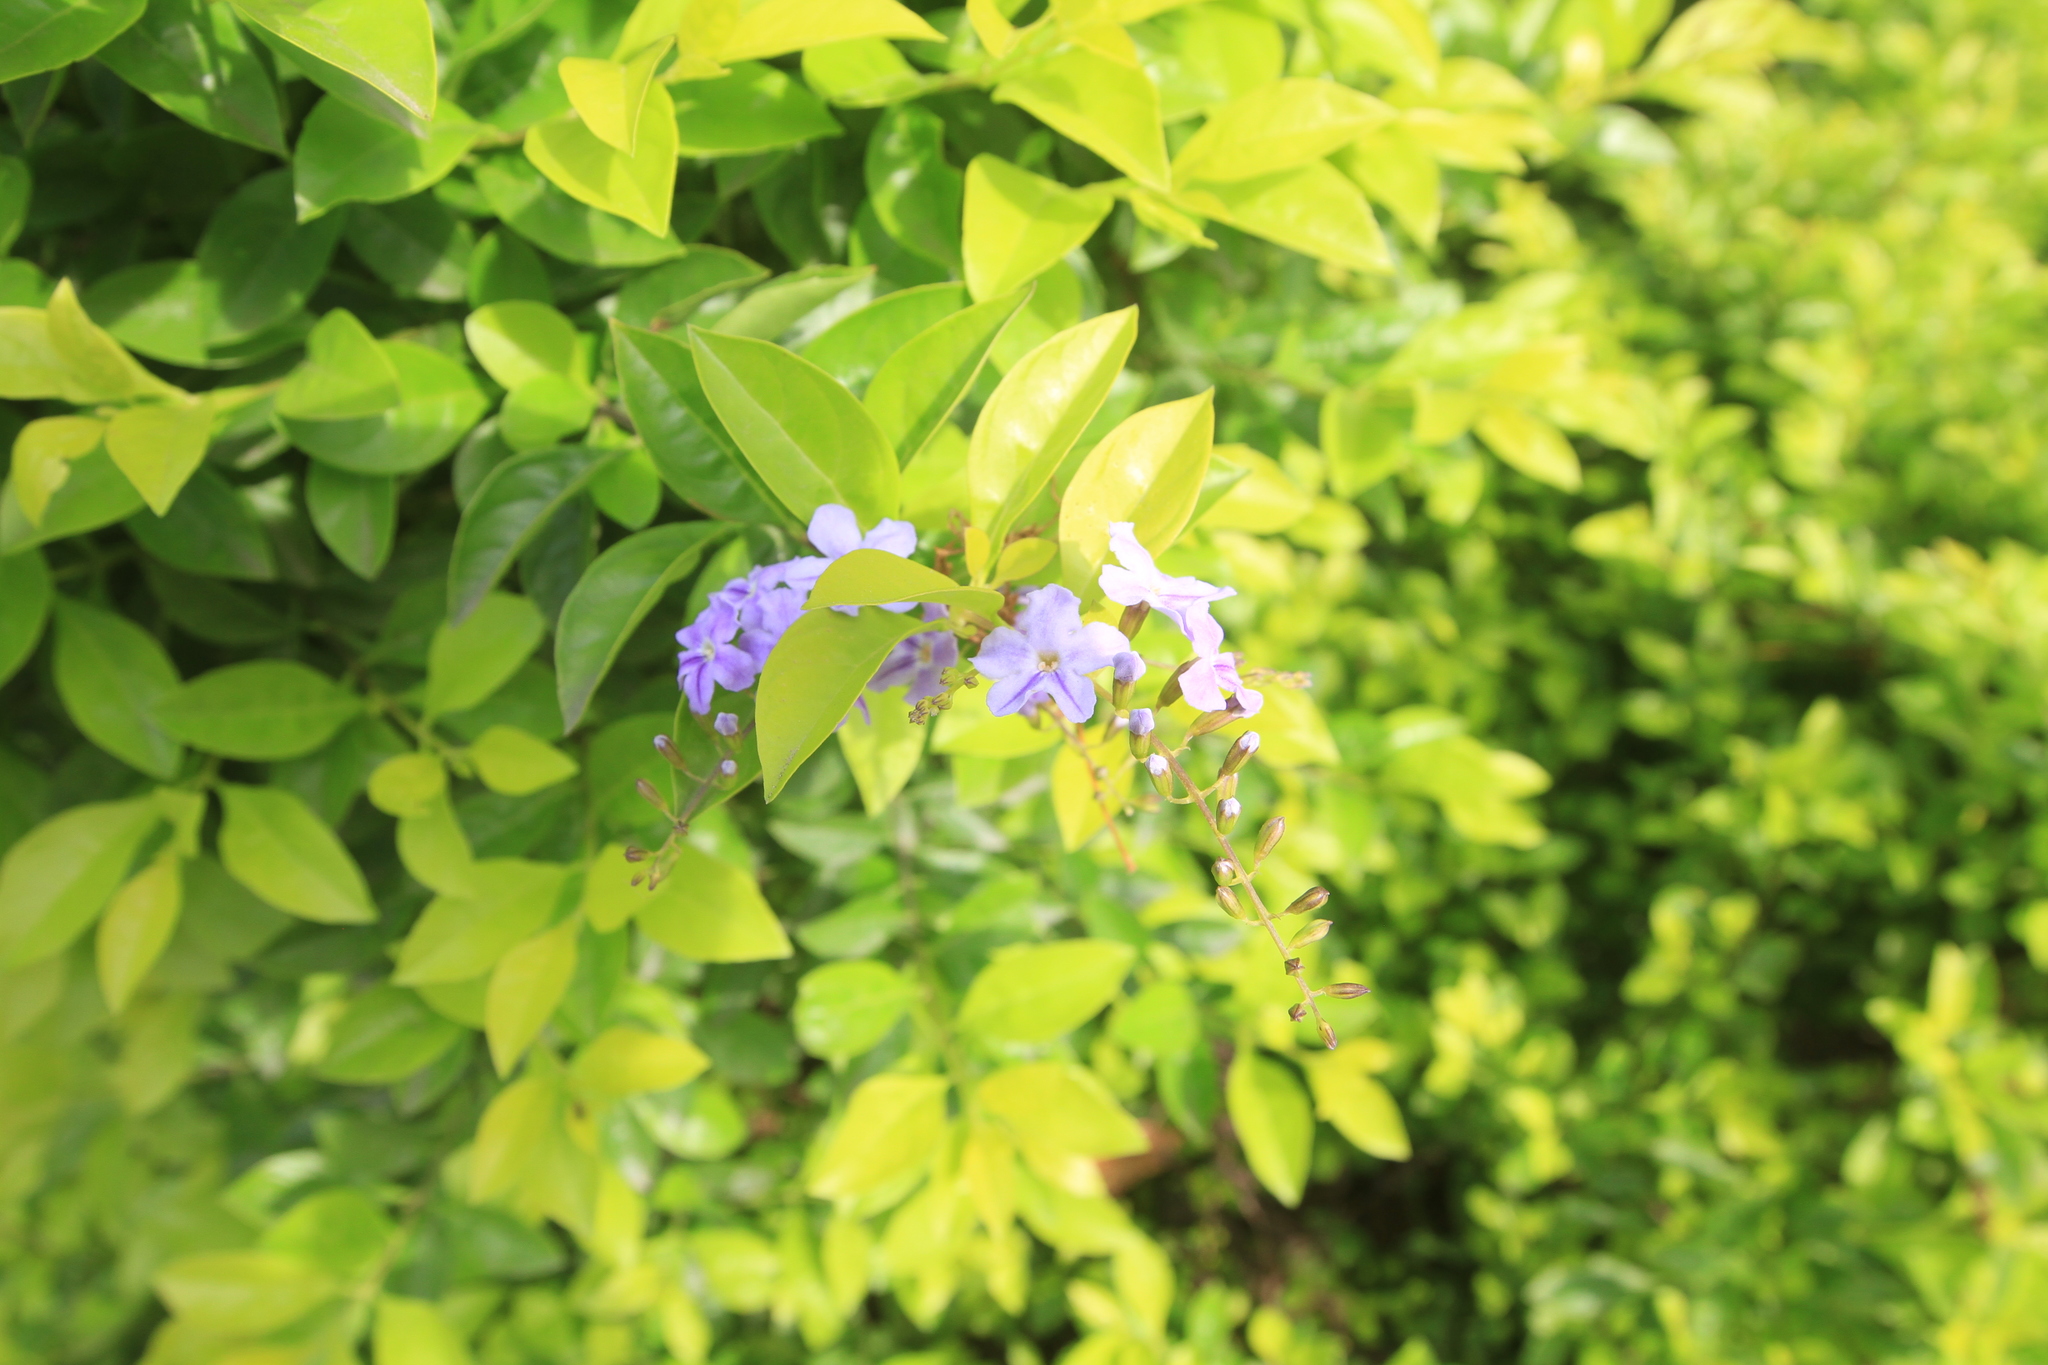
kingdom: Plantae
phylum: Tracheophyta
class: Magnoliopsida
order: Lamiales
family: Verbenaceae
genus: Duranta
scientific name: Duranta erecta
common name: Golden dewdrops
